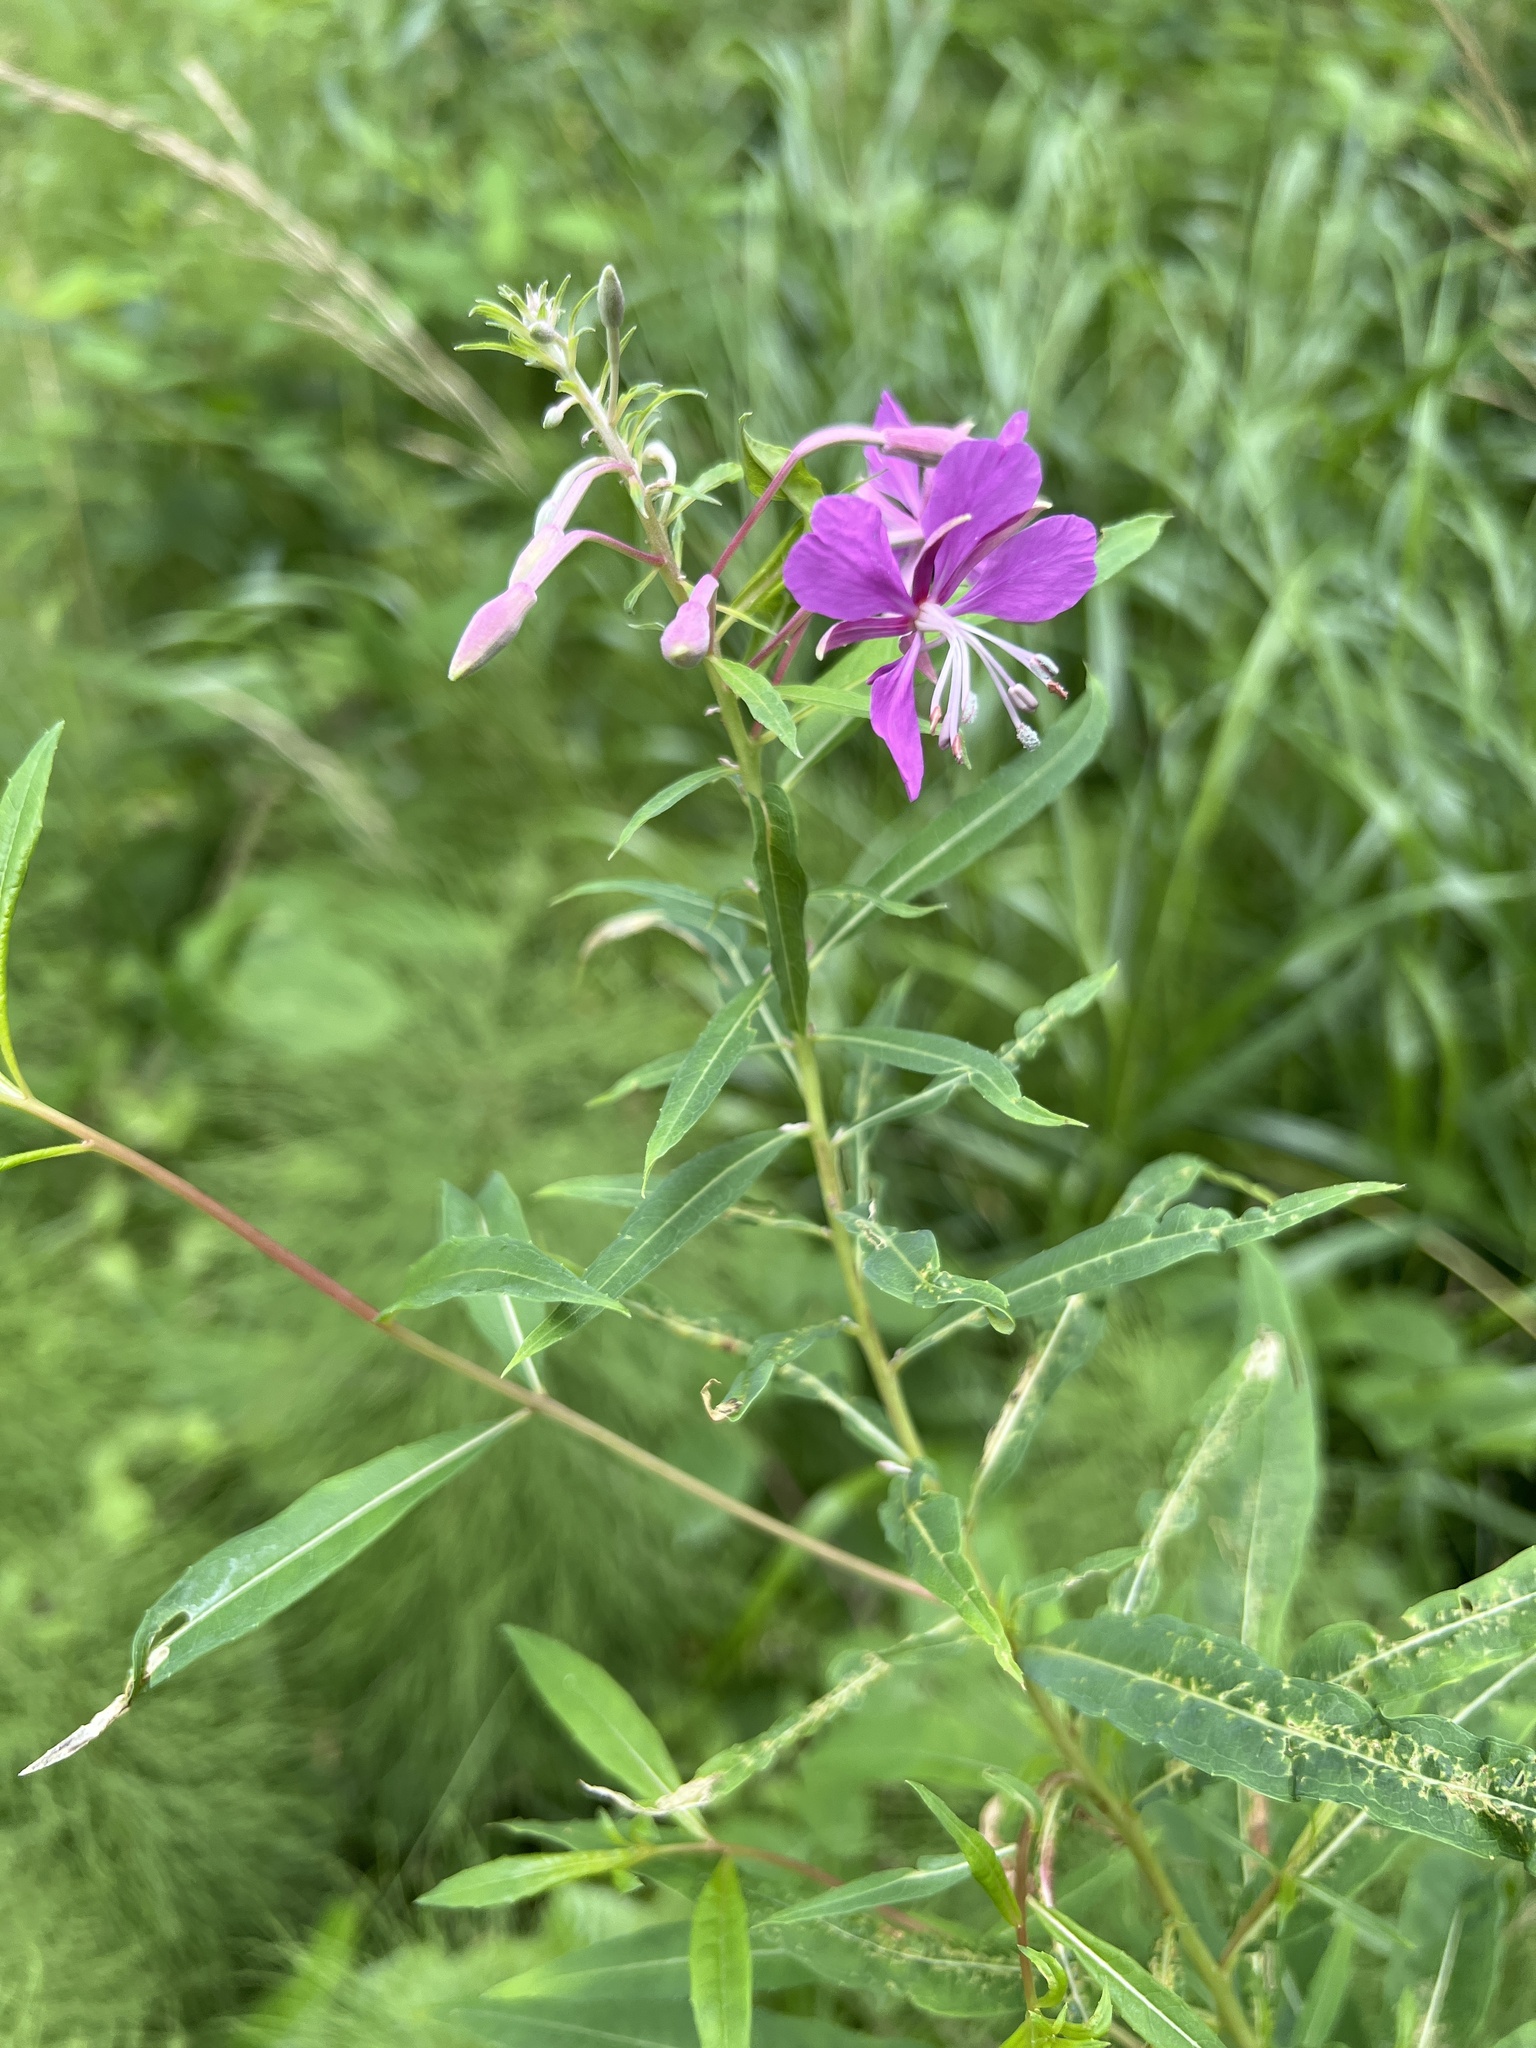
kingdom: Plantae
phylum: Tracheophyta
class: Magnoliopsida
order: Myrtales
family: Onagraceae
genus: Chamaenerion
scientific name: Chamaenerion angustifolium
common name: Fireweed
